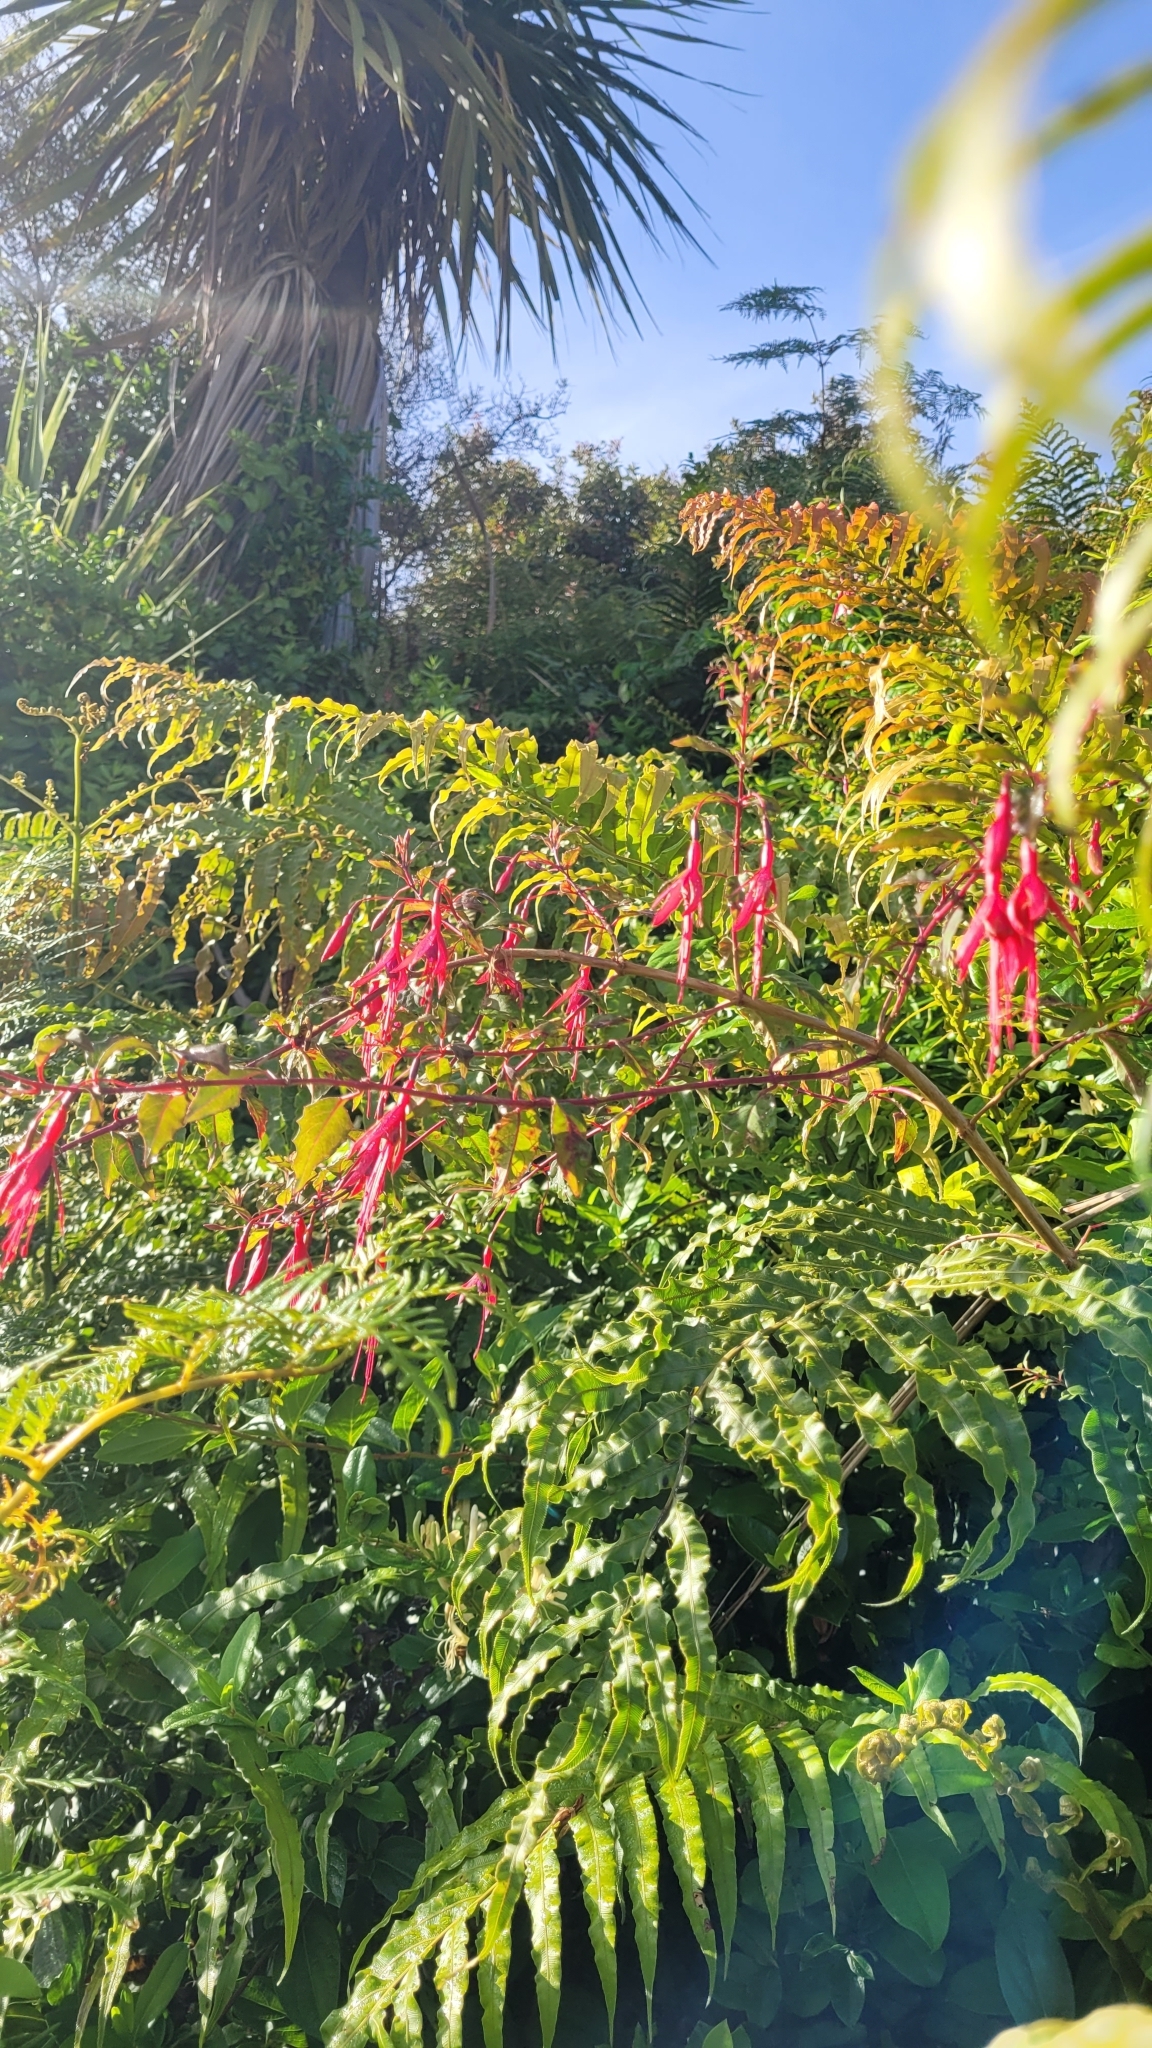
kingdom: Plantae
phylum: Tracheophyta
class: Magnoliopsida
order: Myrtales
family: Onagraceae
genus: Fuchsia
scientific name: Fuchsia magellanica
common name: Hardy fuchsia
